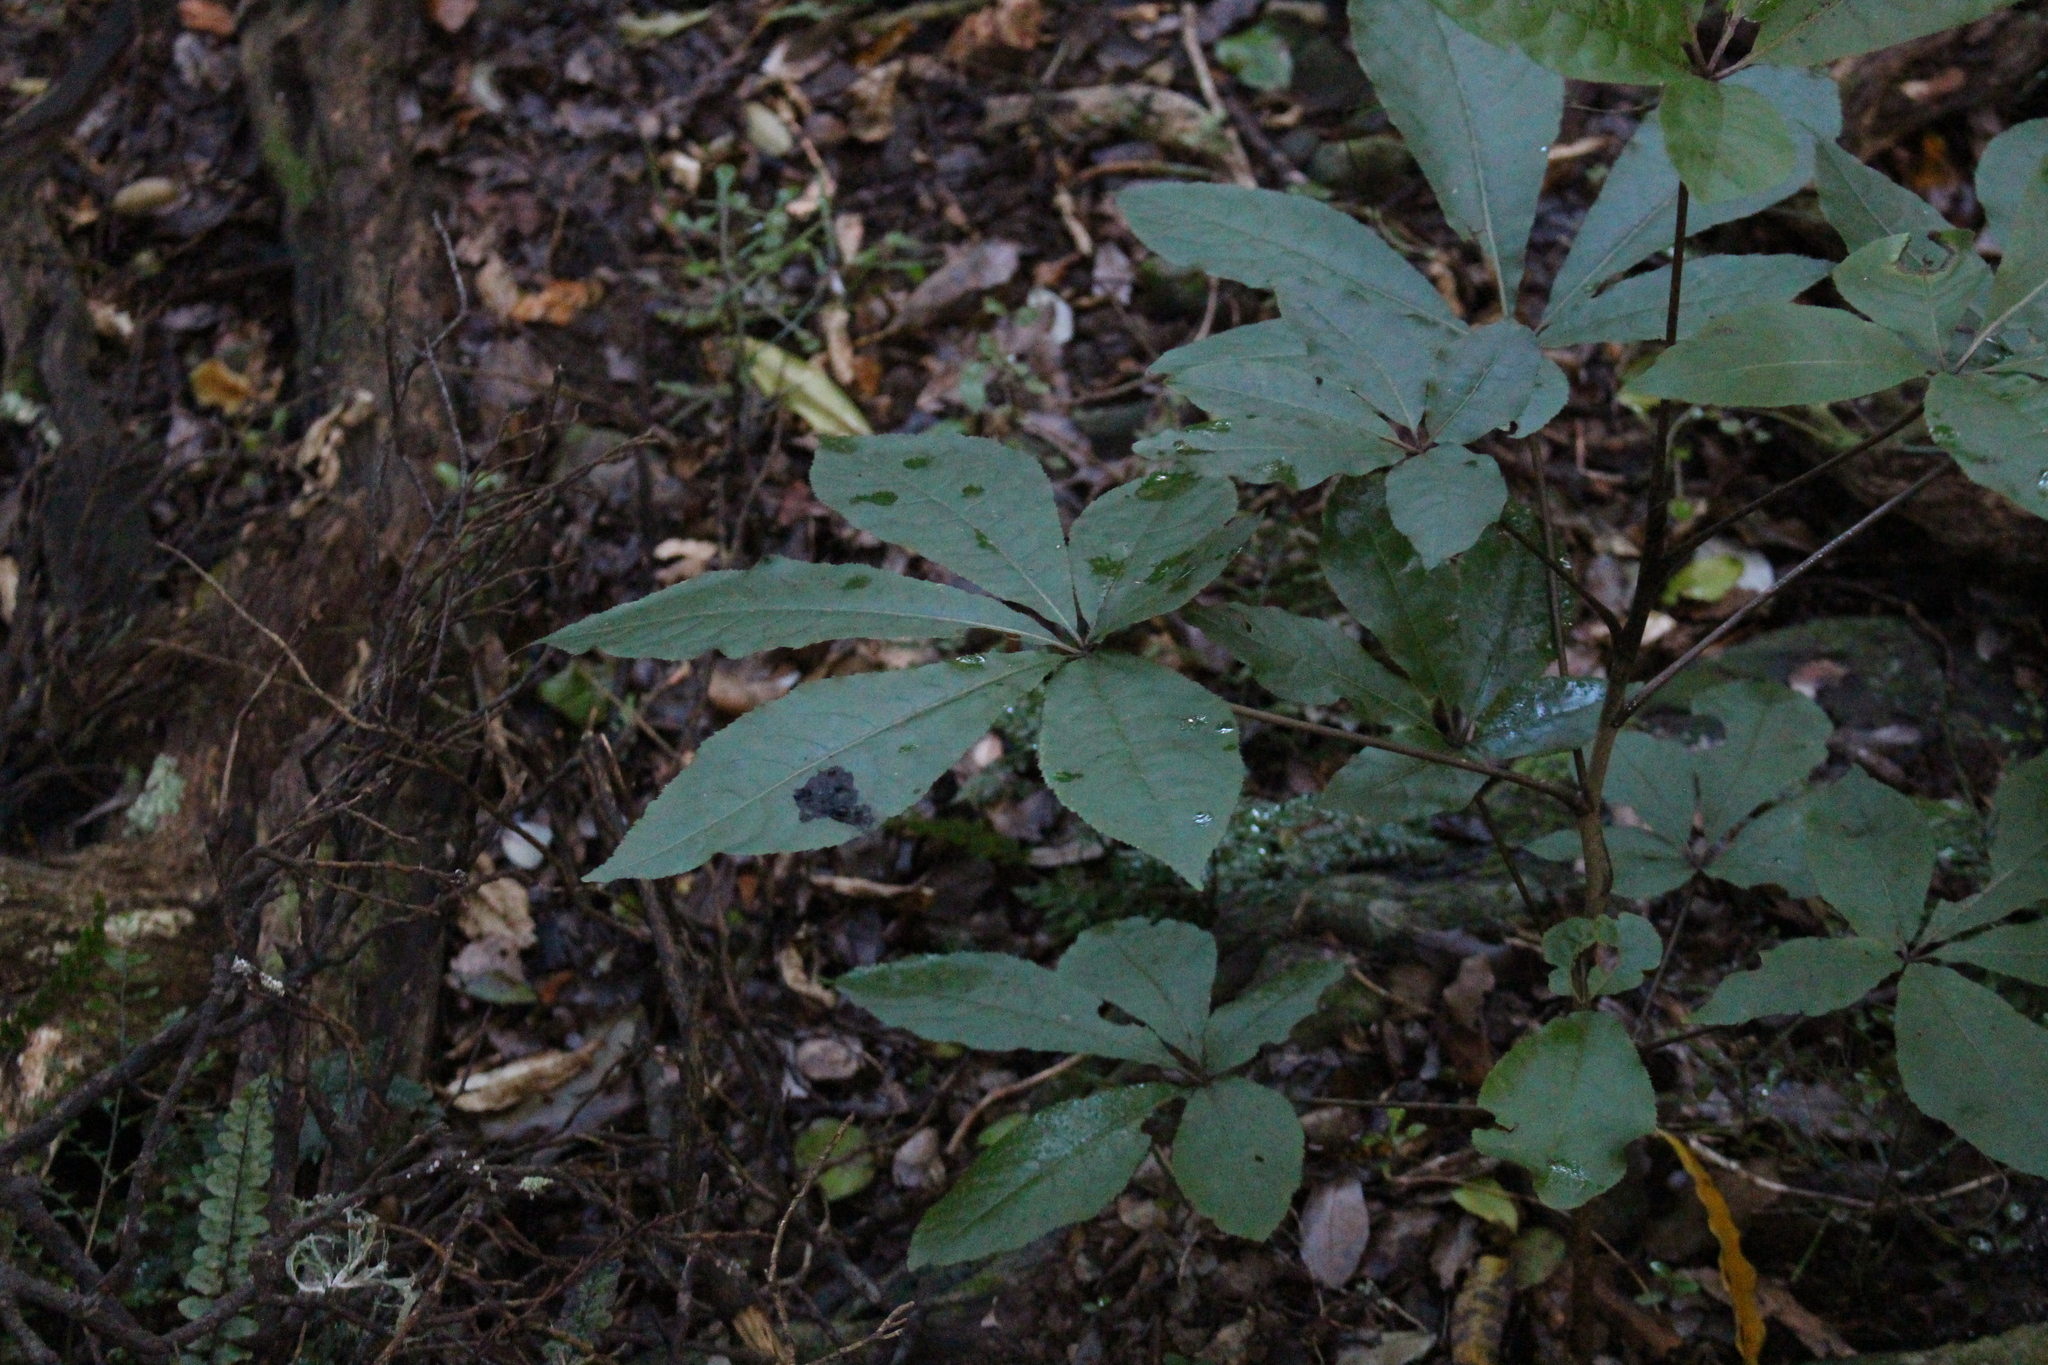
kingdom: Plantae
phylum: Tracheophyta
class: Magnoliopsida
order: Apiales
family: Araliaceae
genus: Schefflera
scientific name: Schefflera digitata
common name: Pate
